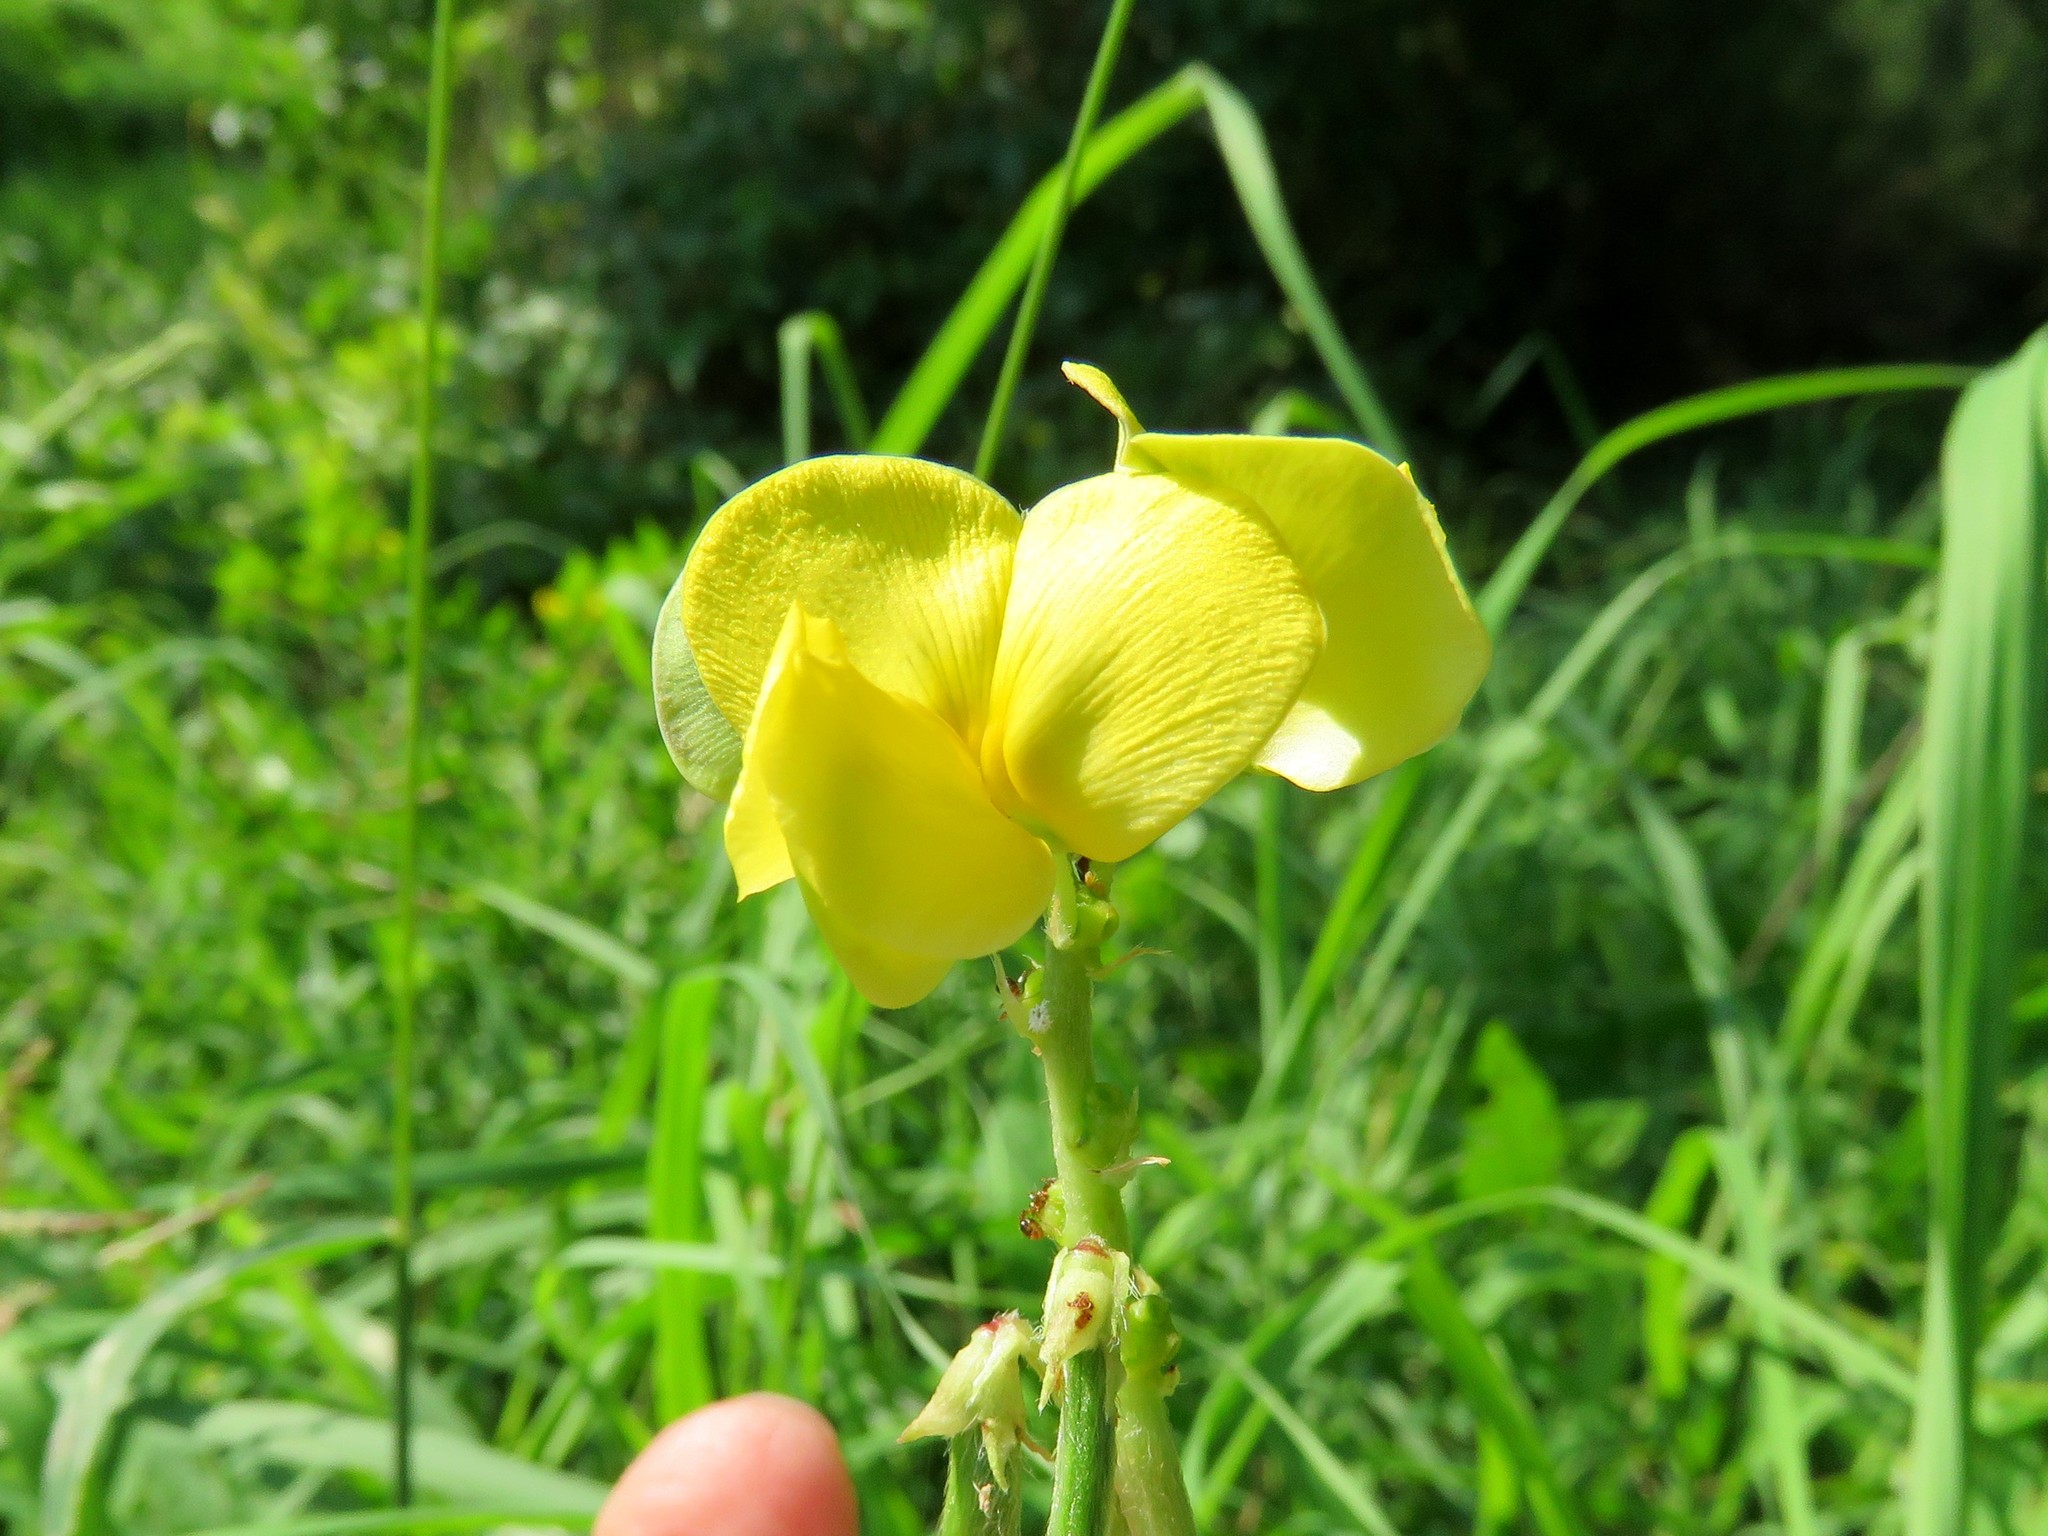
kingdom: Plantae
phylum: Tracheophyta
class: Magnoliopsida
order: Fabales
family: Fabaceae
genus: Vigna
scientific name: Vigna luteola
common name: Hairypod cowpea
